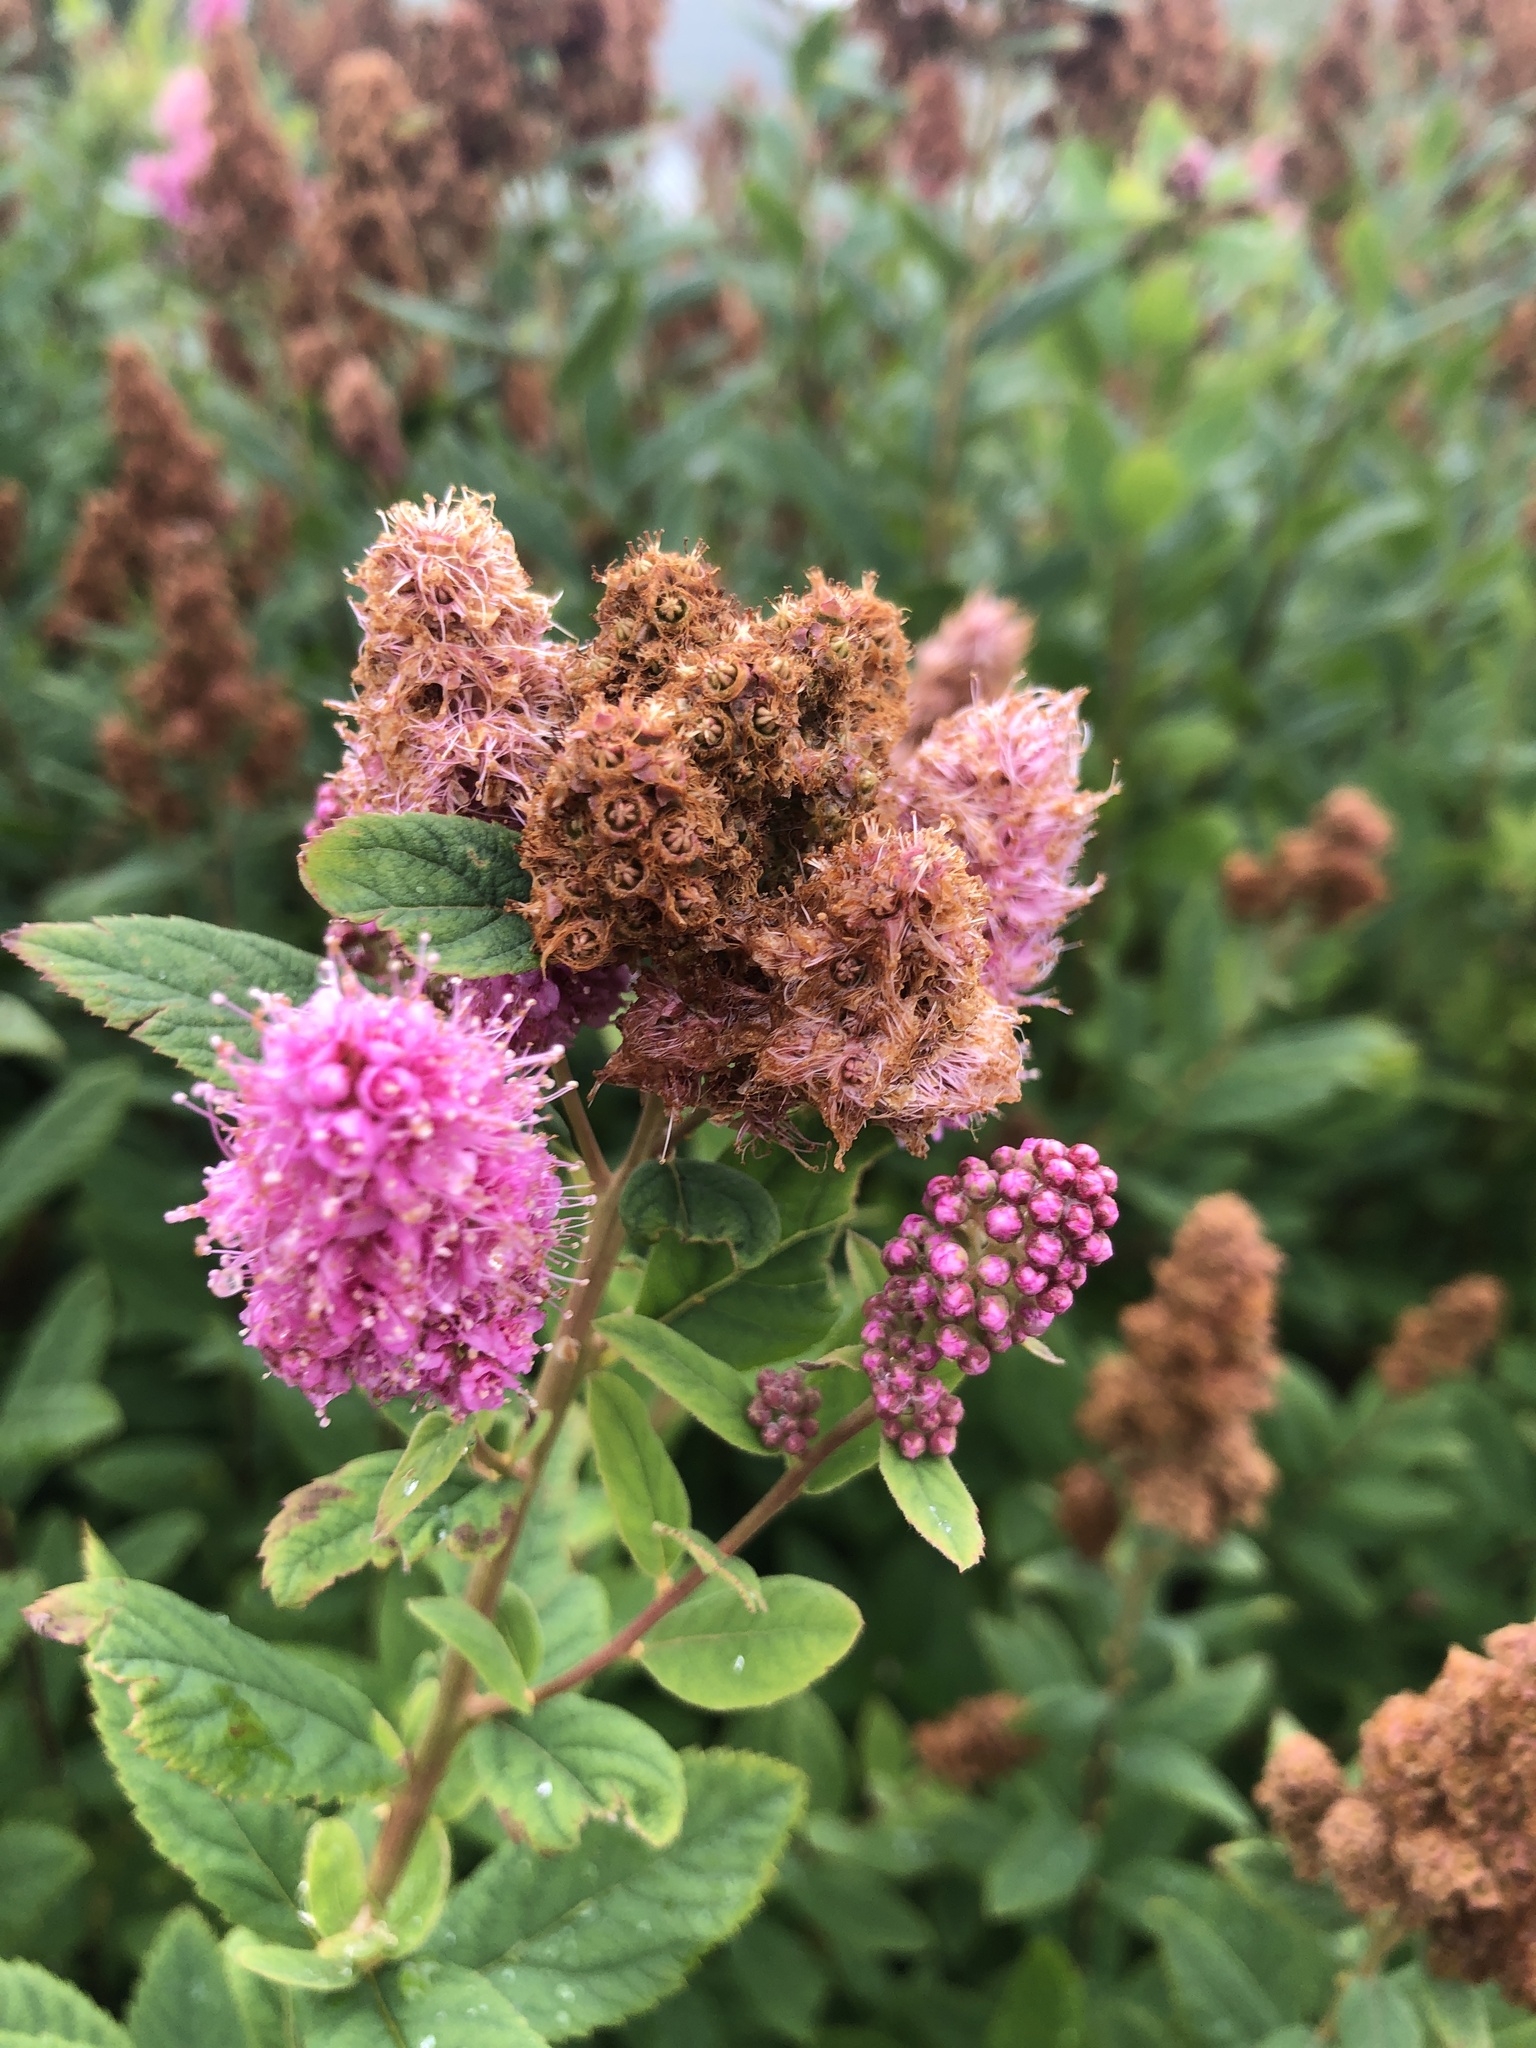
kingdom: Plantae
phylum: Tracheophyta
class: Magnoliopsida
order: Rosales
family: Rosaceae
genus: Spiraea
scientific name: Spiraea douglasii
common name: Steeplebush
